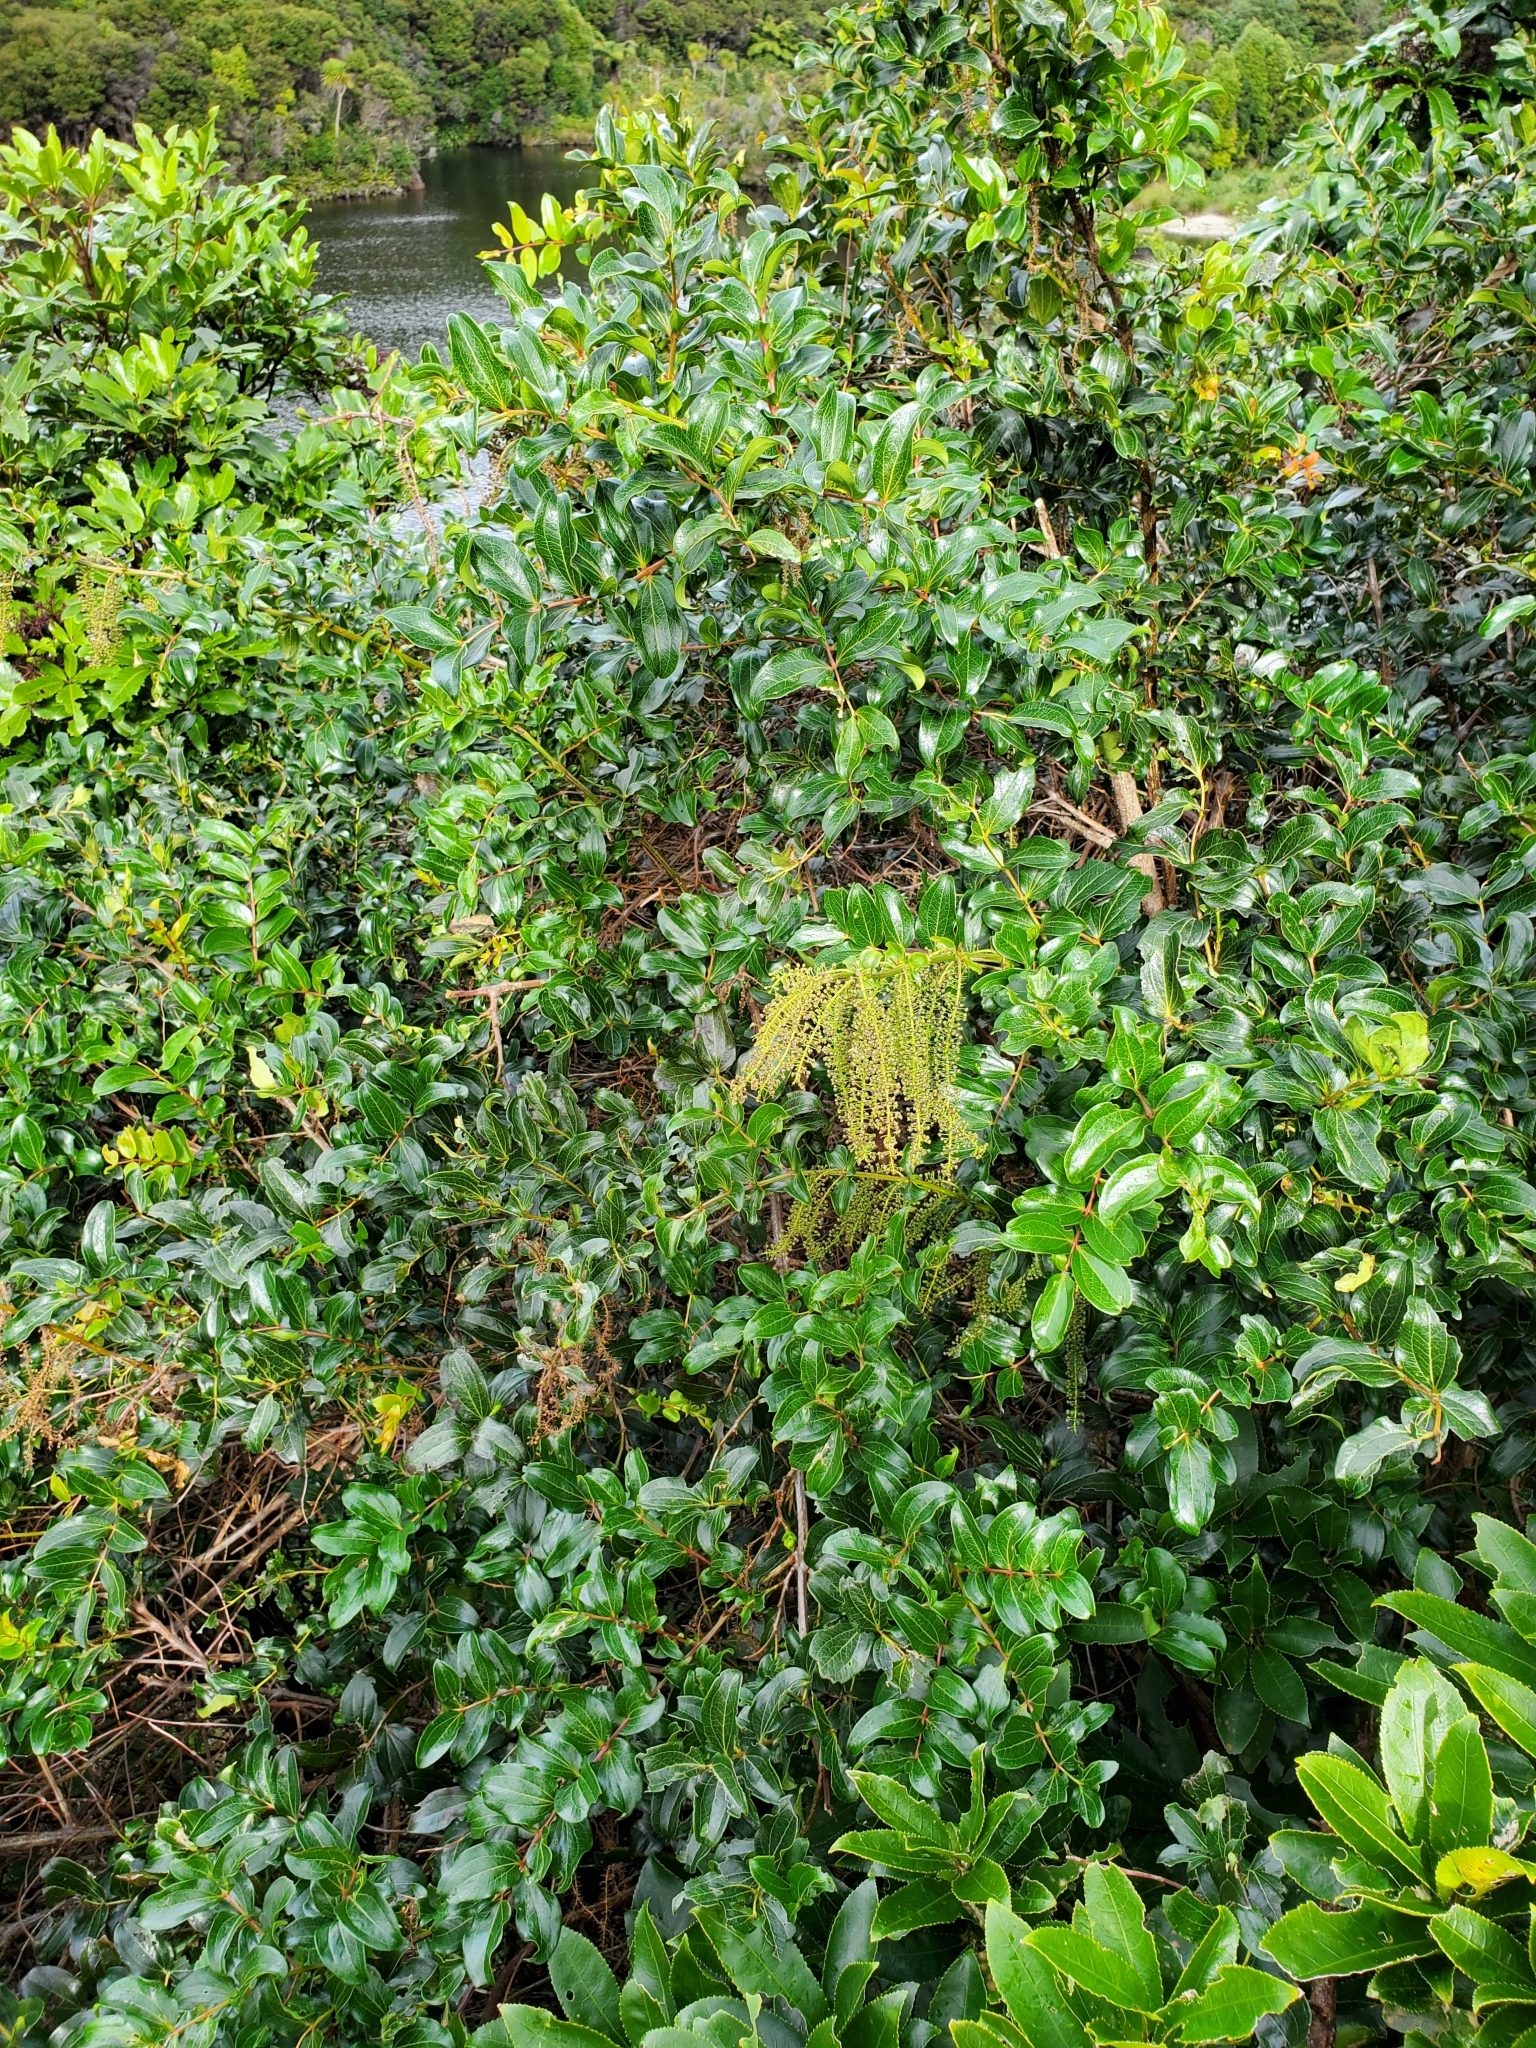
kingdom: Plantae
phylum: Tracheophyta
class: Magnoliopsida
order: Cucurbitales
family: Coriariaceae
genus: Coriaria
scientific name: Coriaria arborea
